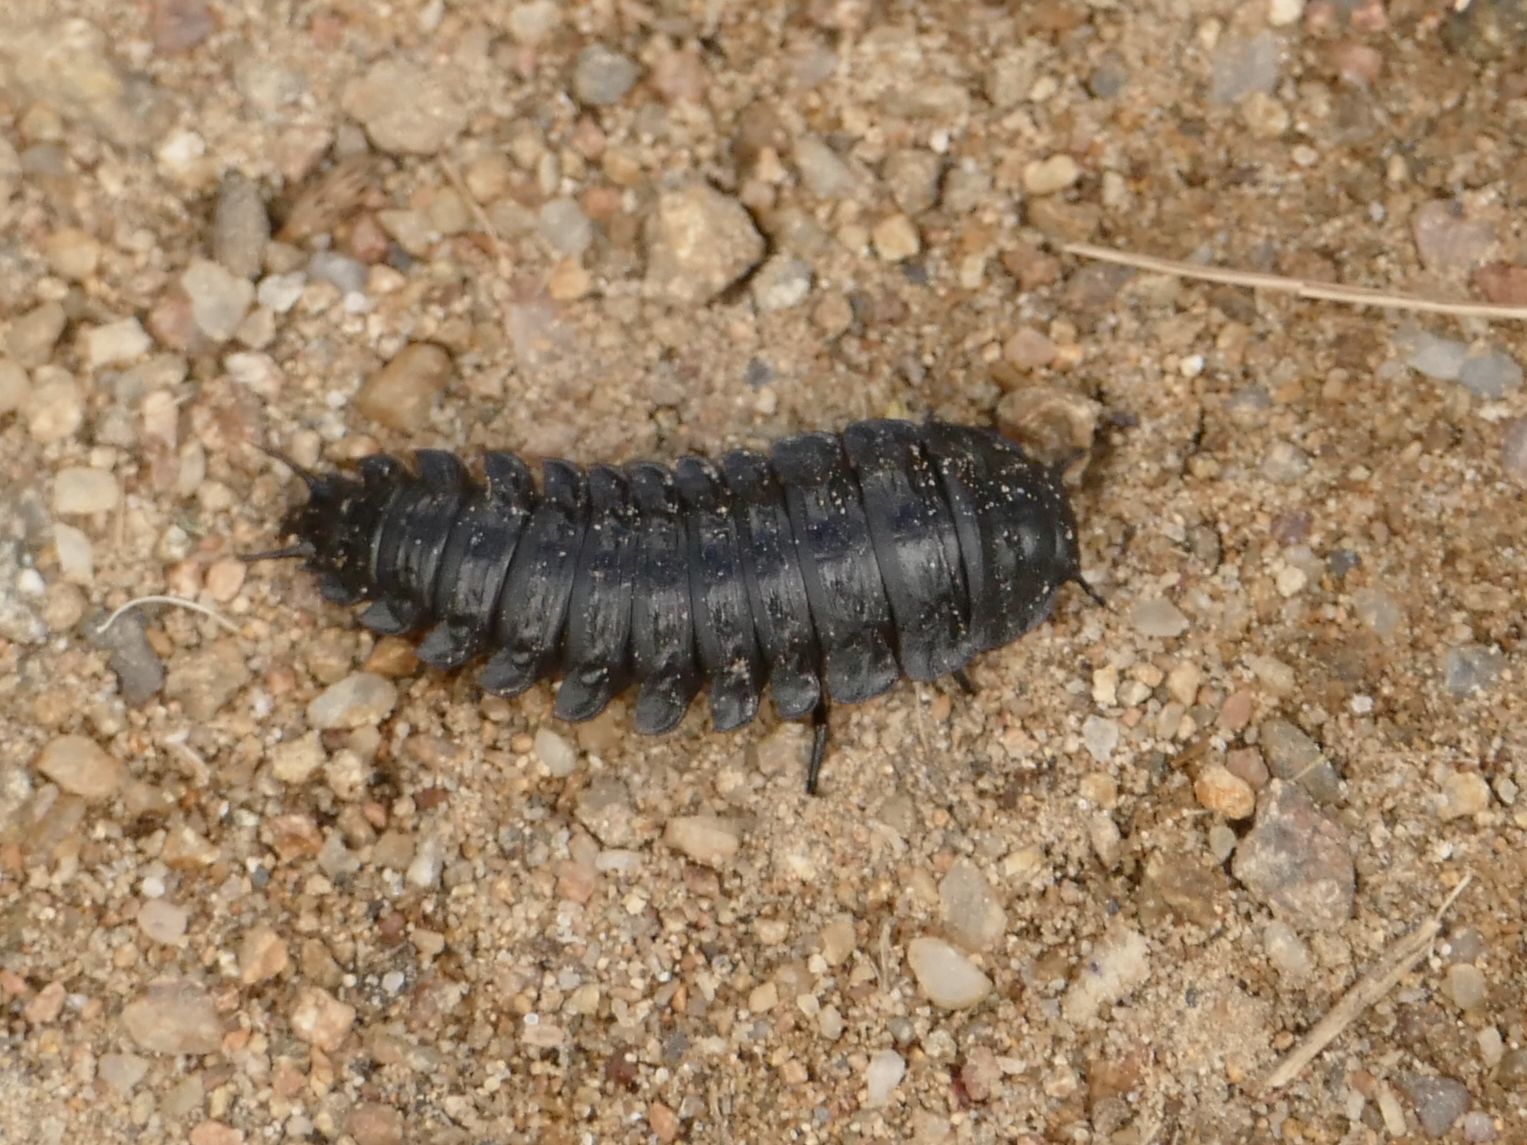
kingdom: Animalia
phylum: Arthropoda
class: Insecta
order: Coleoptera
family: Staphylinidae
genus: Ptomaphila
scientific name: Ptomaphila lacrymosa
